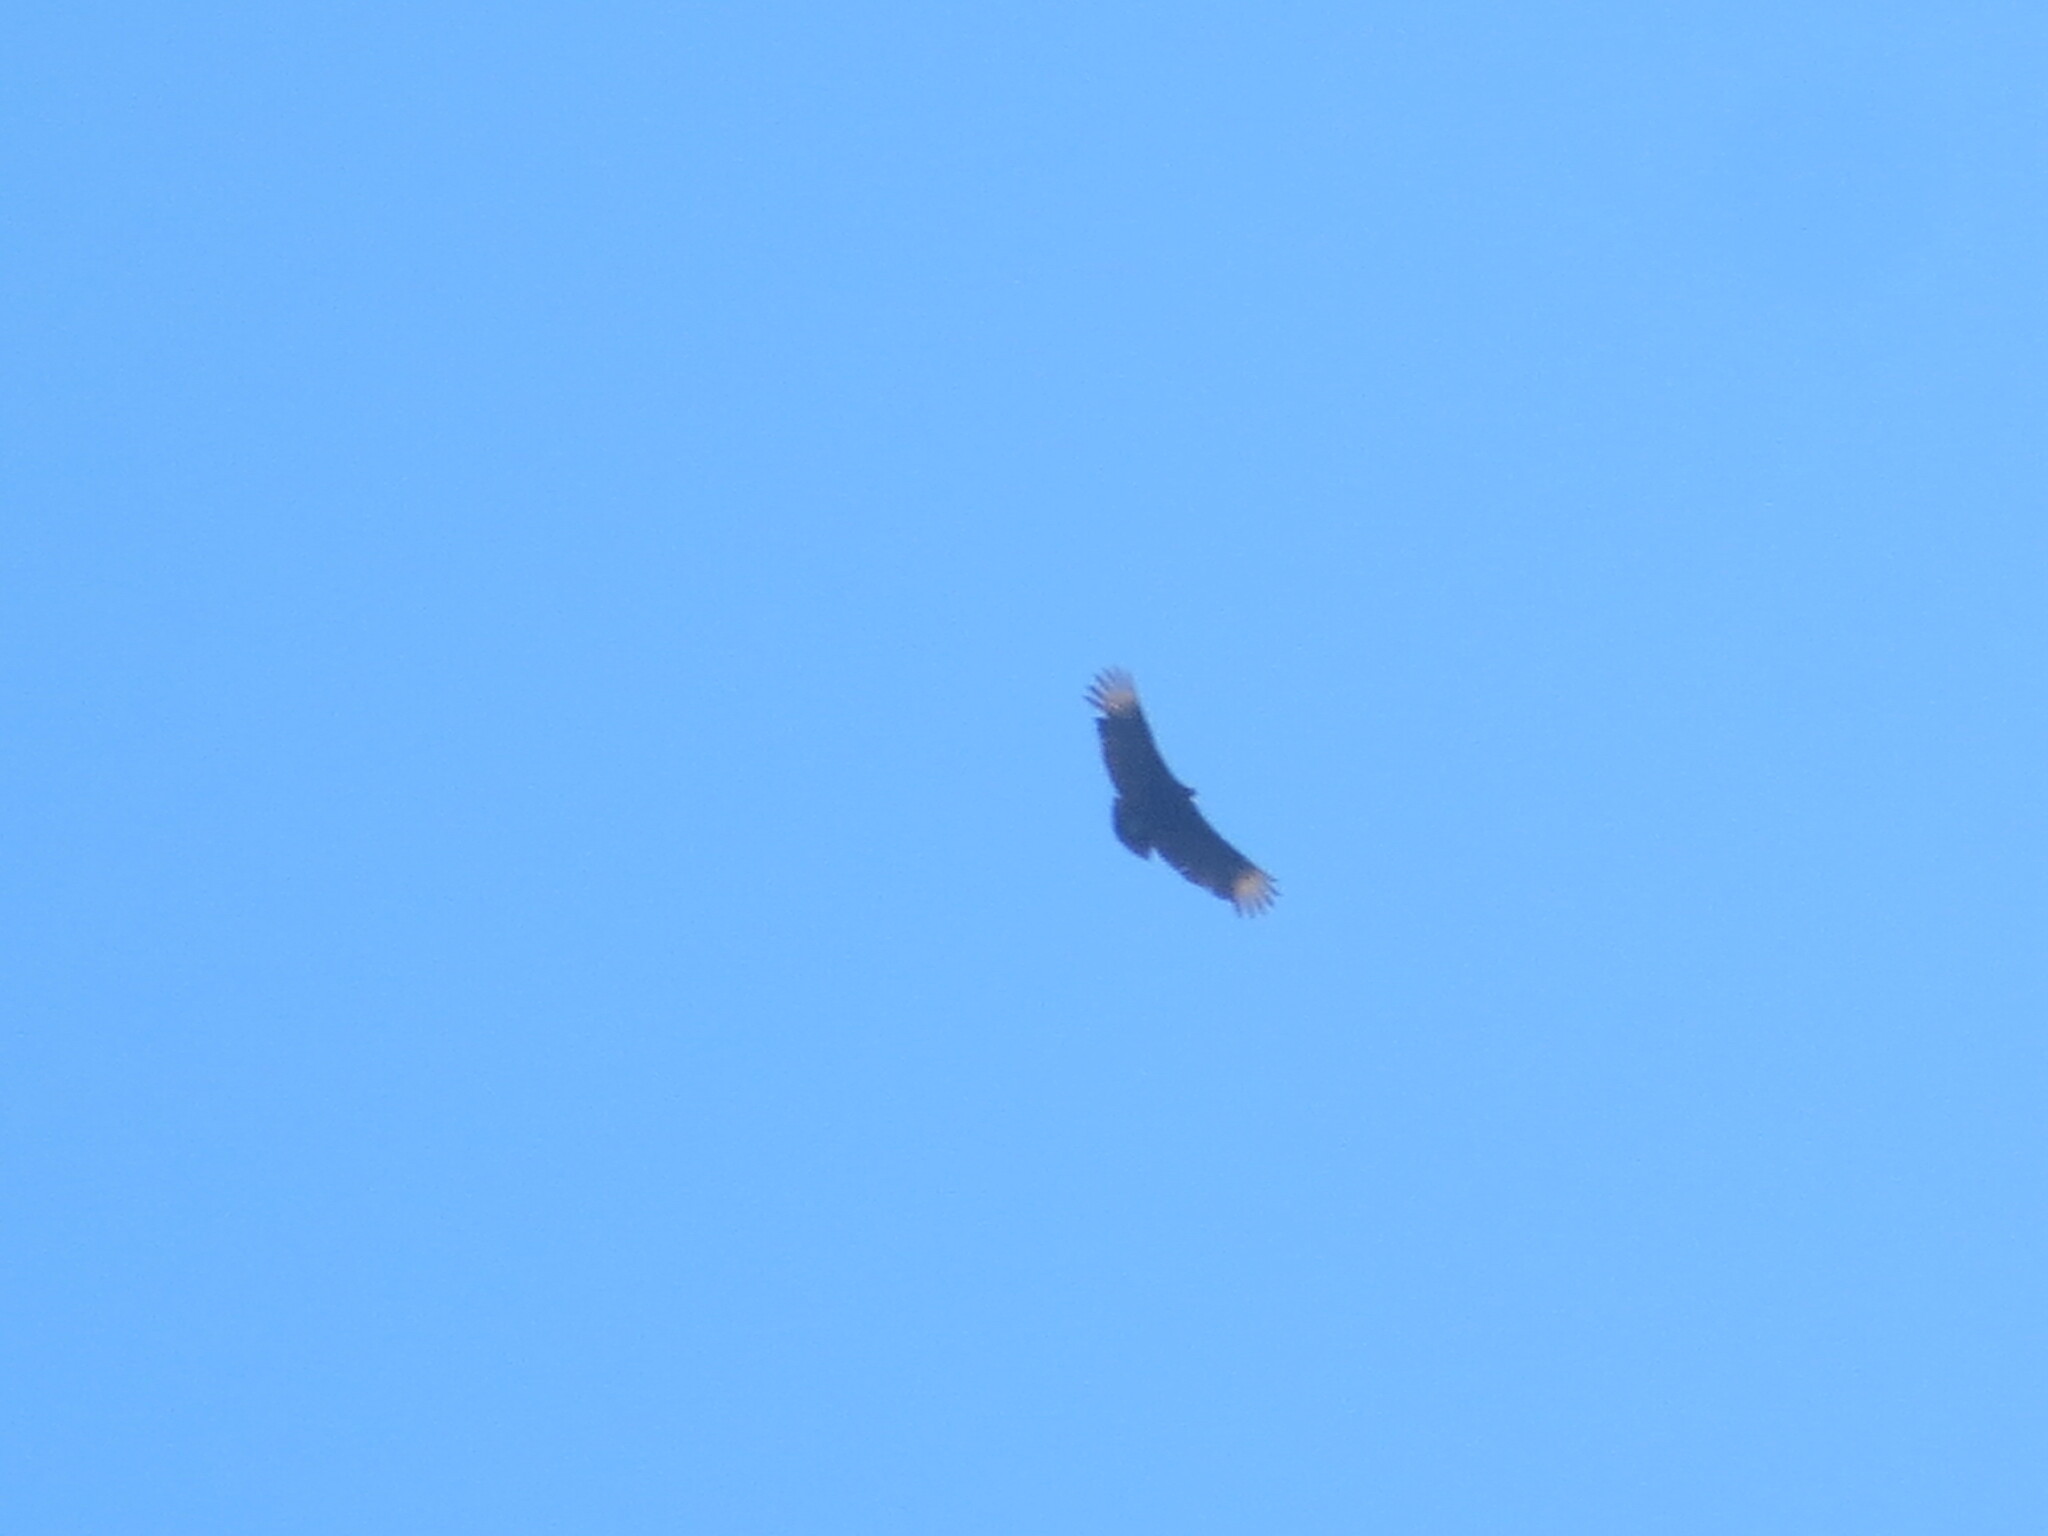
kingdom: Animalia
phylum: Chordata
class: Aves
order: Accipitriformes
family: Cathartidae
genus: Coragyps
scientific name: Coragyps atratus
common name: Black vulture
